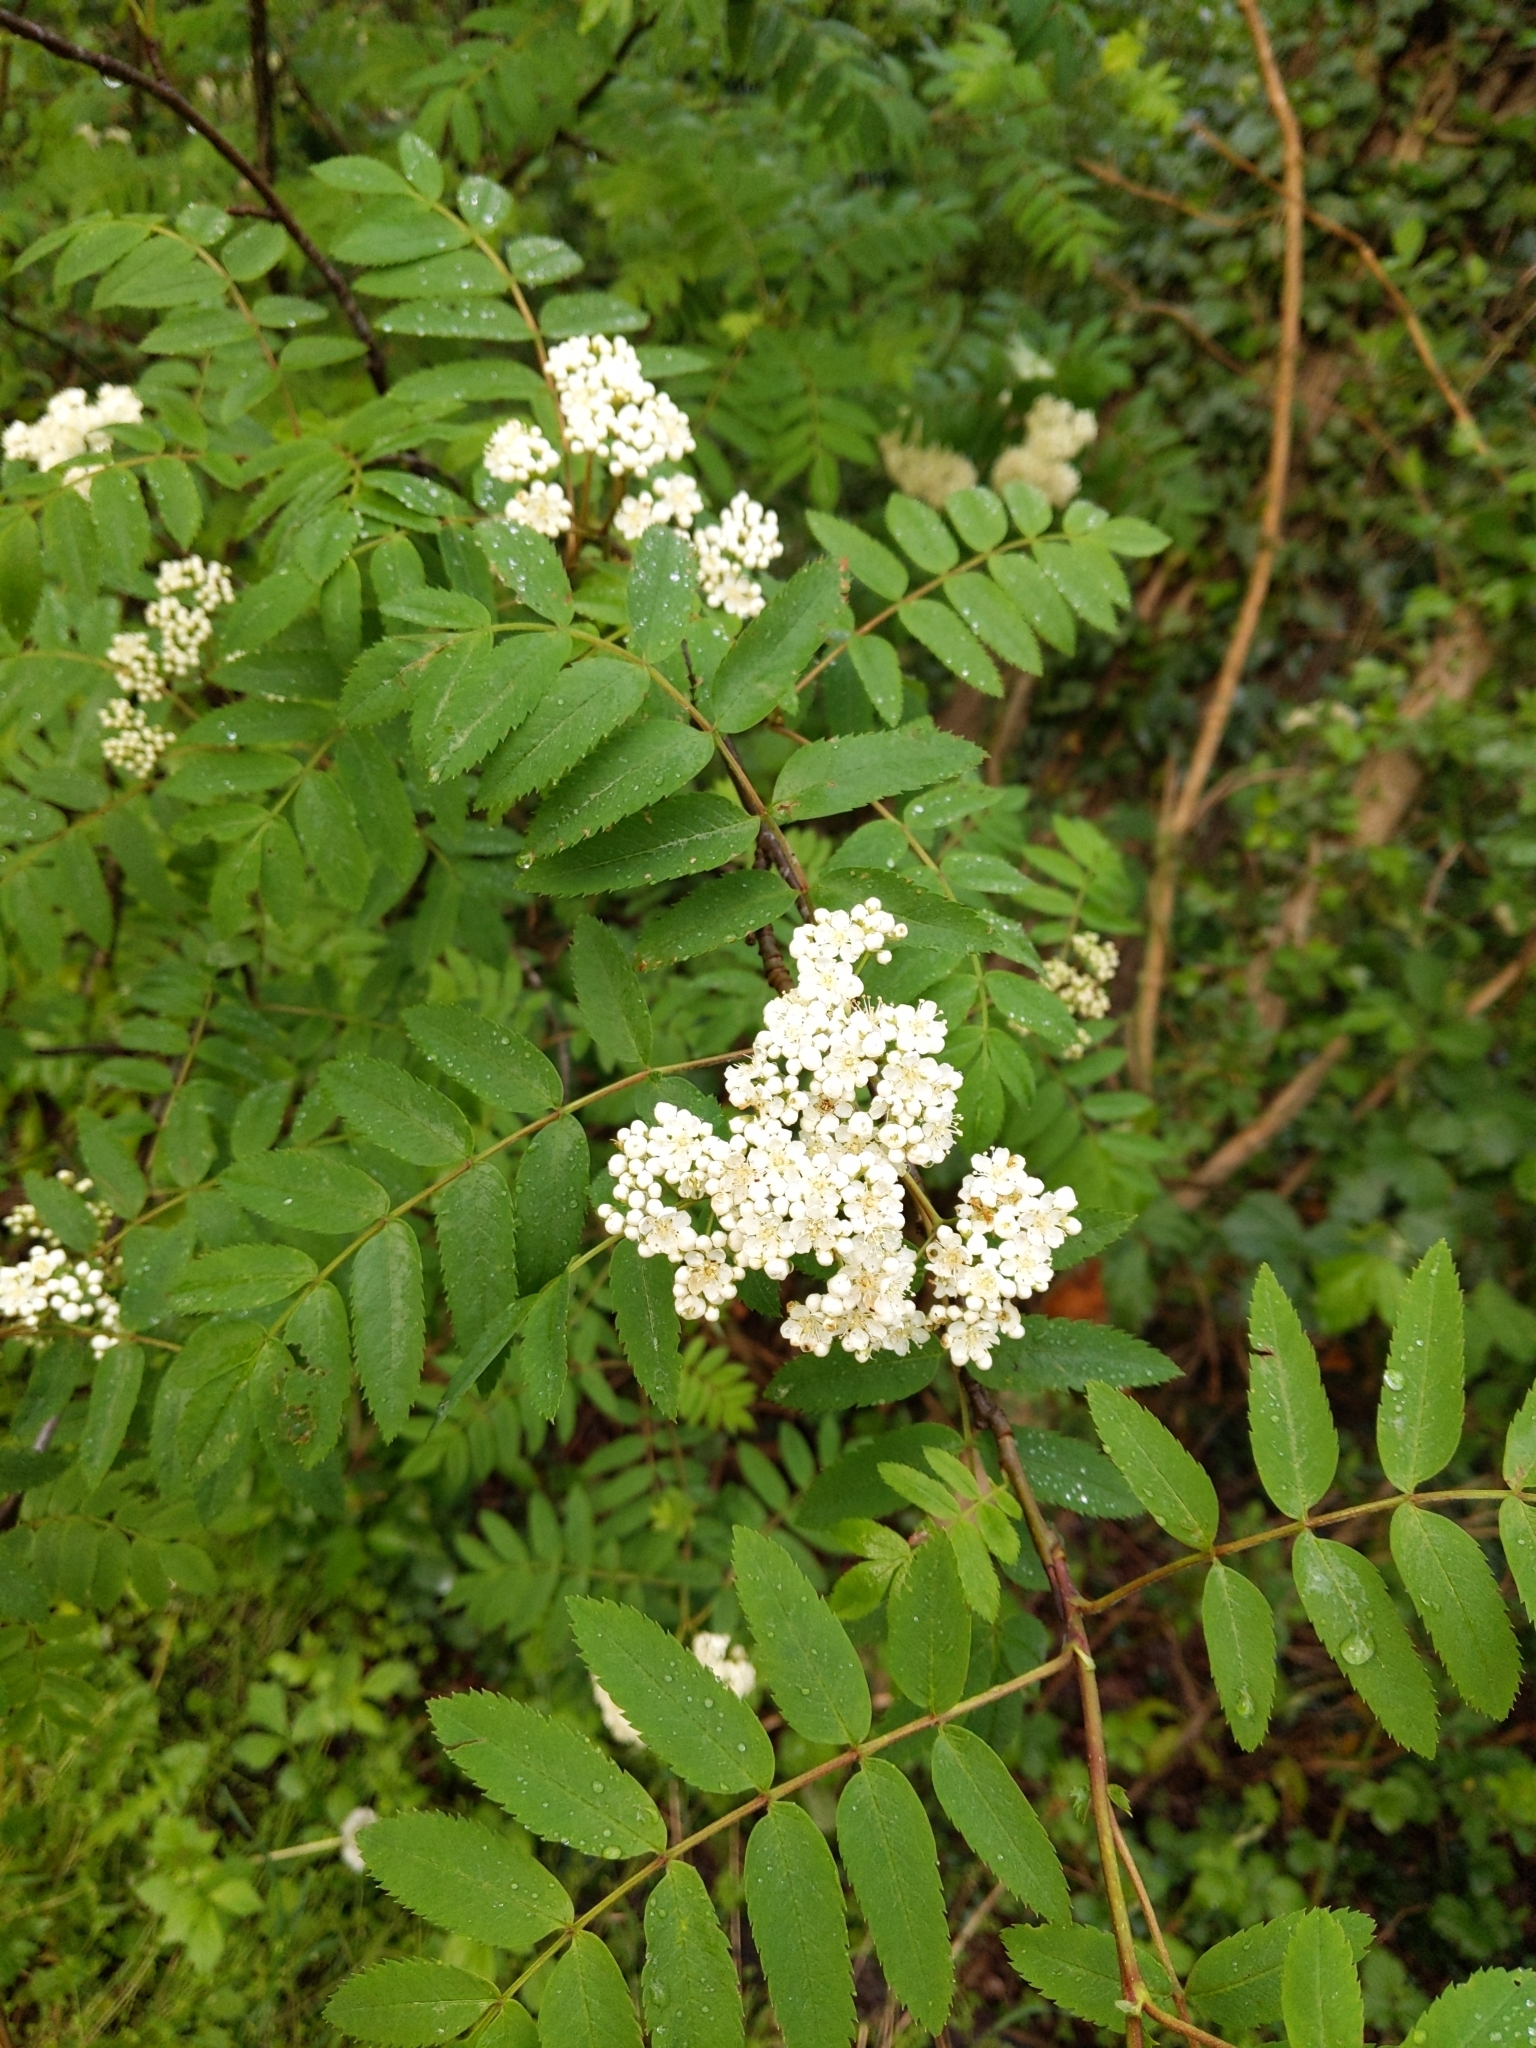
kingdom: Plantae
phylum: Tracheophyta
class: Magnoliopsida
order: Rosales
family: Rosaceae
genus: Sorbus
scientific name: Sorbus aucuparia
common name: Rowan
